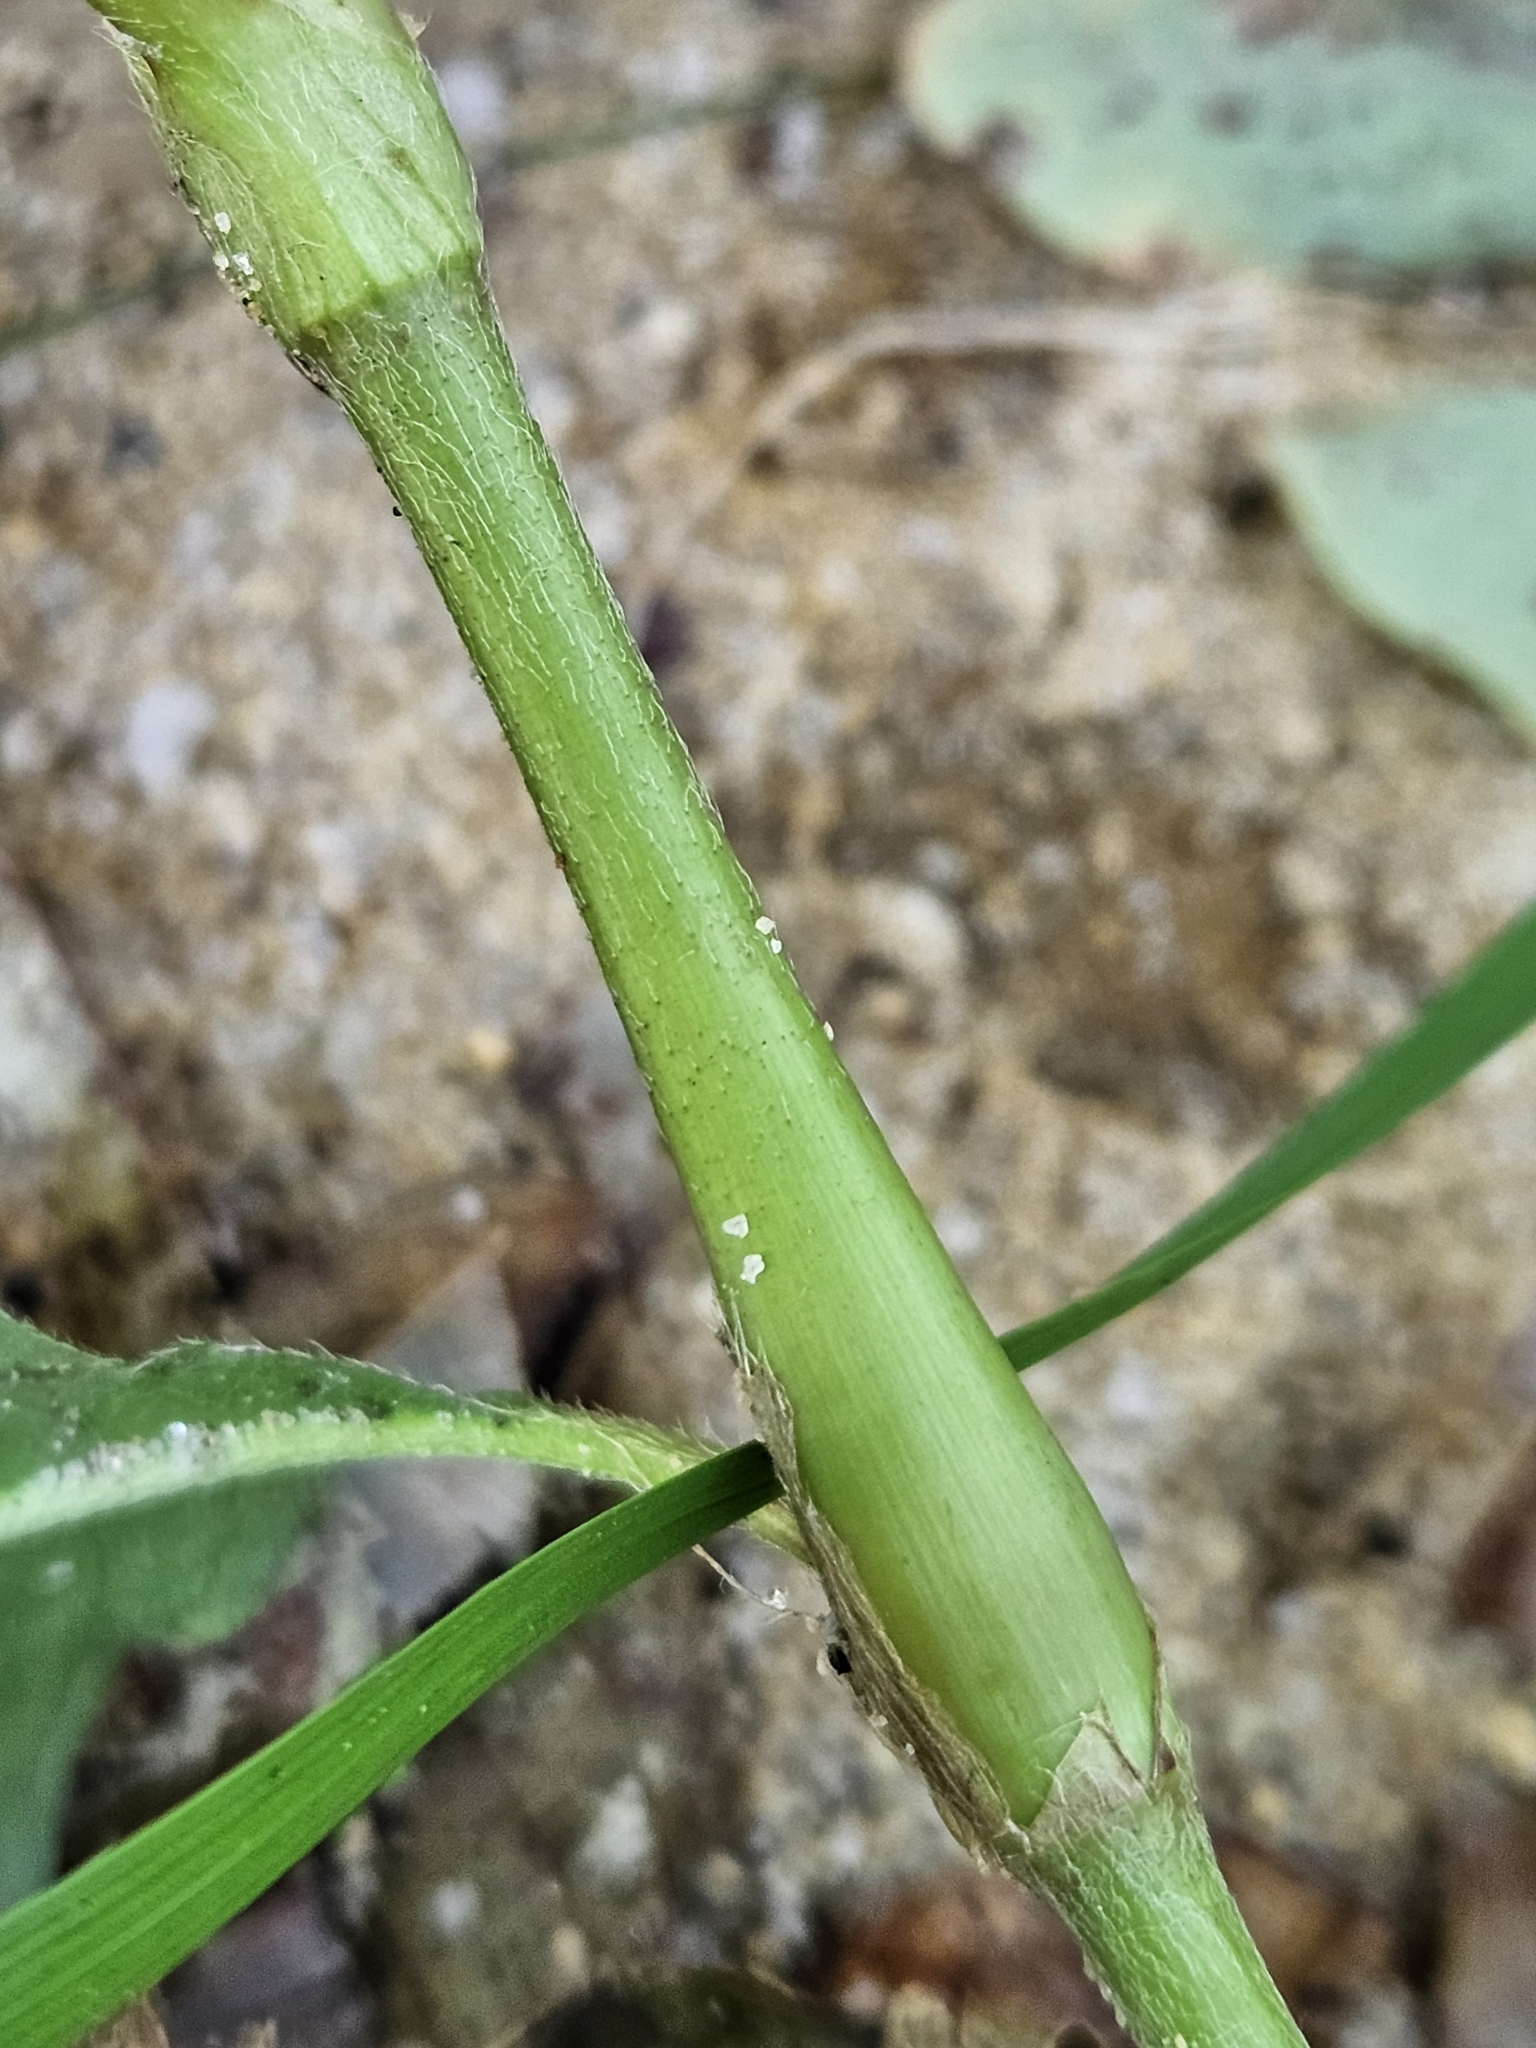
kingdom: Plantae
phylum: Tracheophyta
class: Magnoliopsida
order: Caryophyllales
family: Polygonaceae
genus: Persicaria
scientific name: Persicaria extremiorientalis
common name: Far-eastern smartweed
